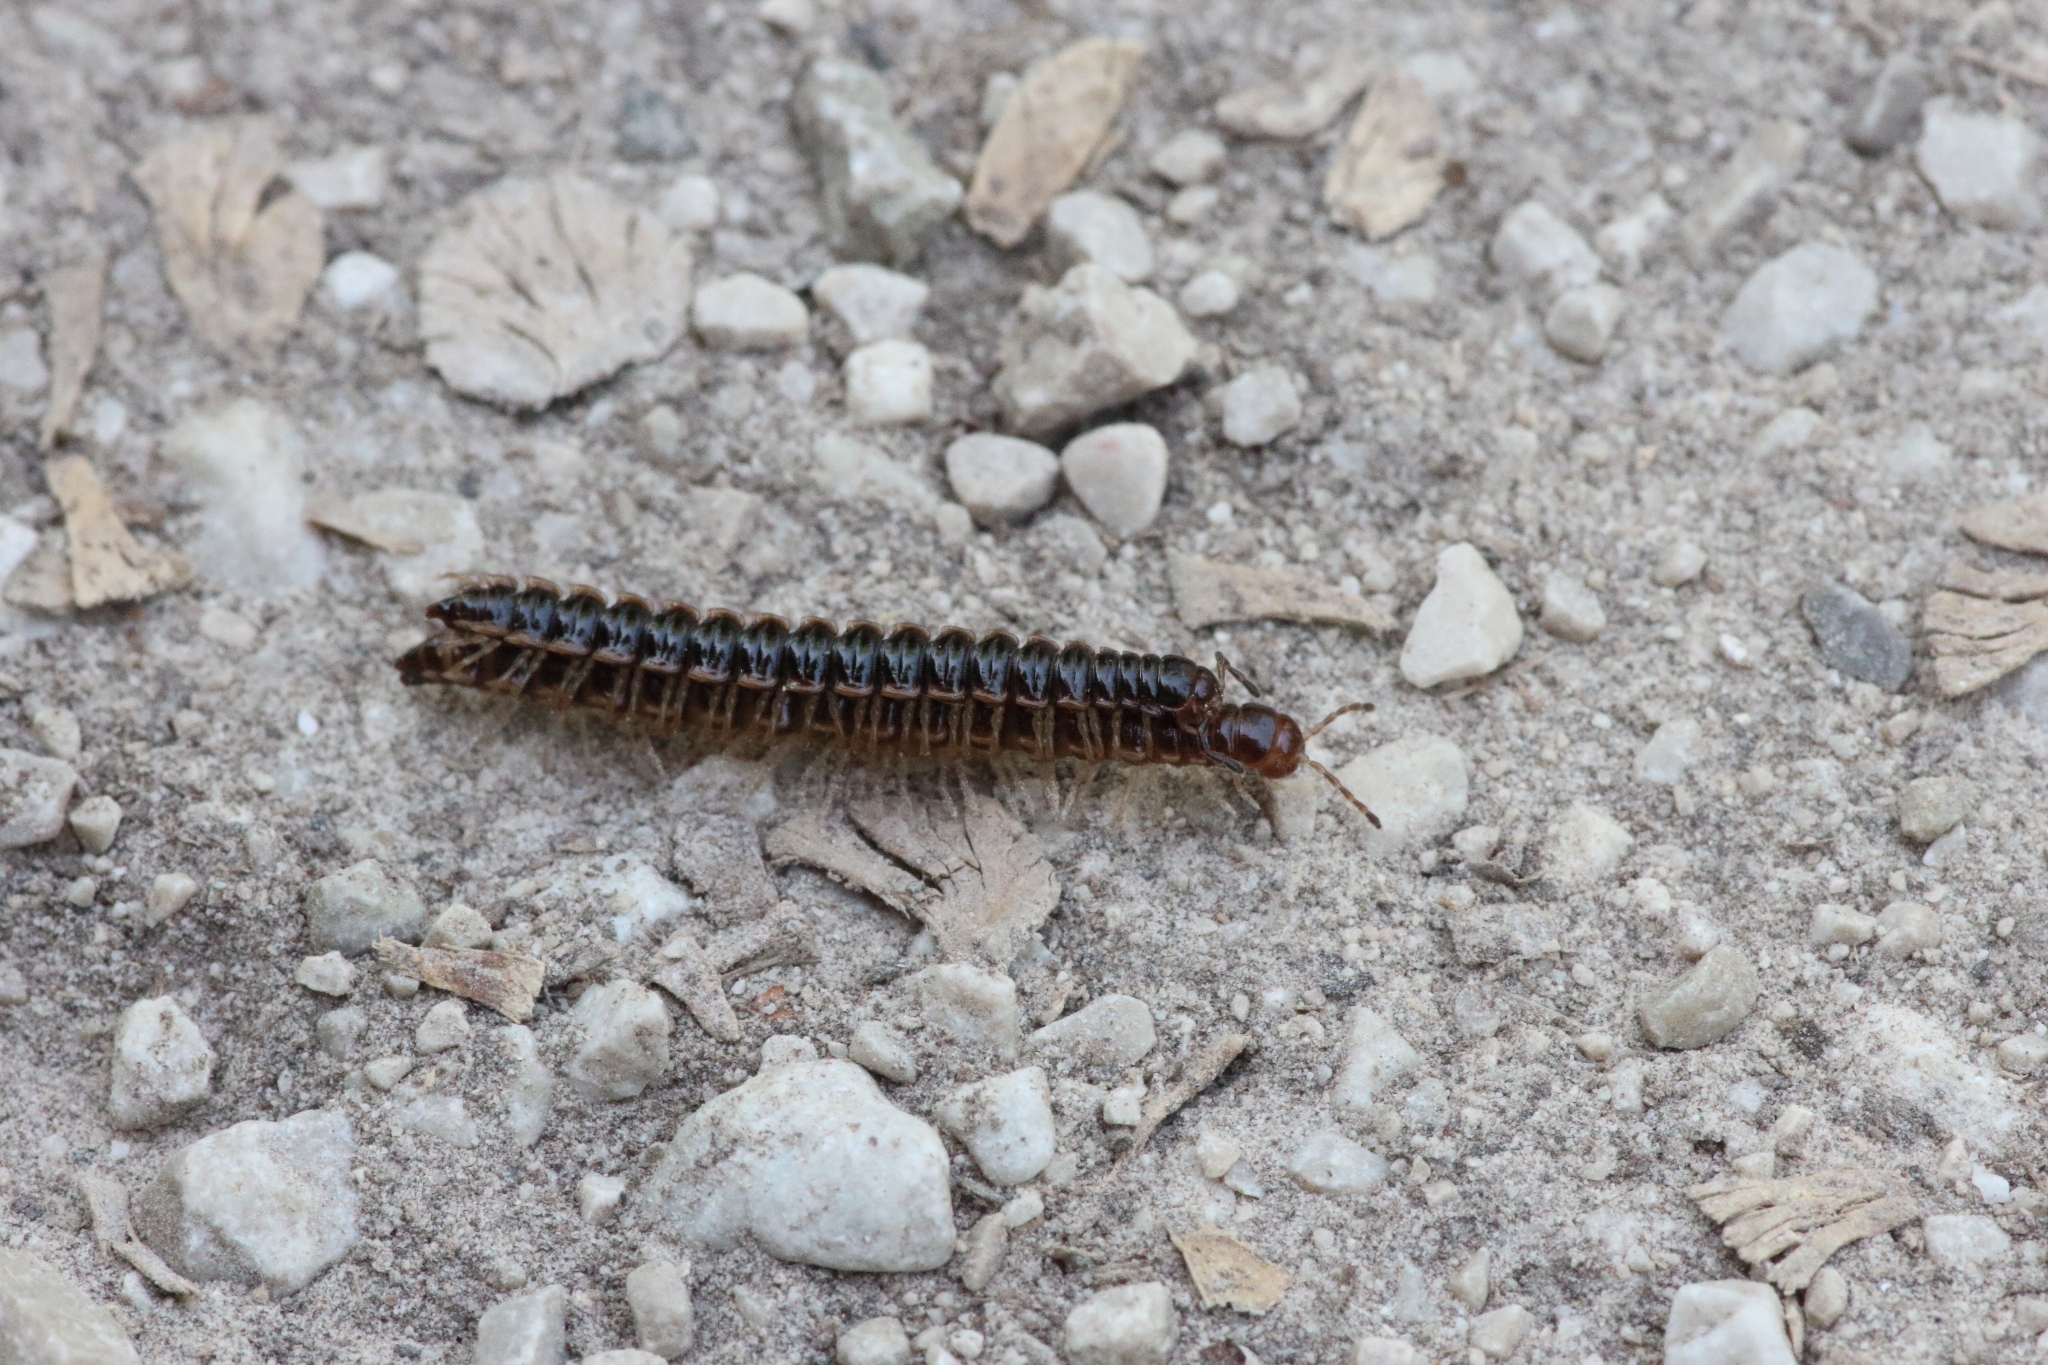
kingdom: Animalia
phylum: Arthropoda
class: Diplopoda
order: Polydesmida
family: Paradoxosomatidae
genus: Oxidus
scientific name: Oxidus gracilis
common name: Greenhouse millipede
